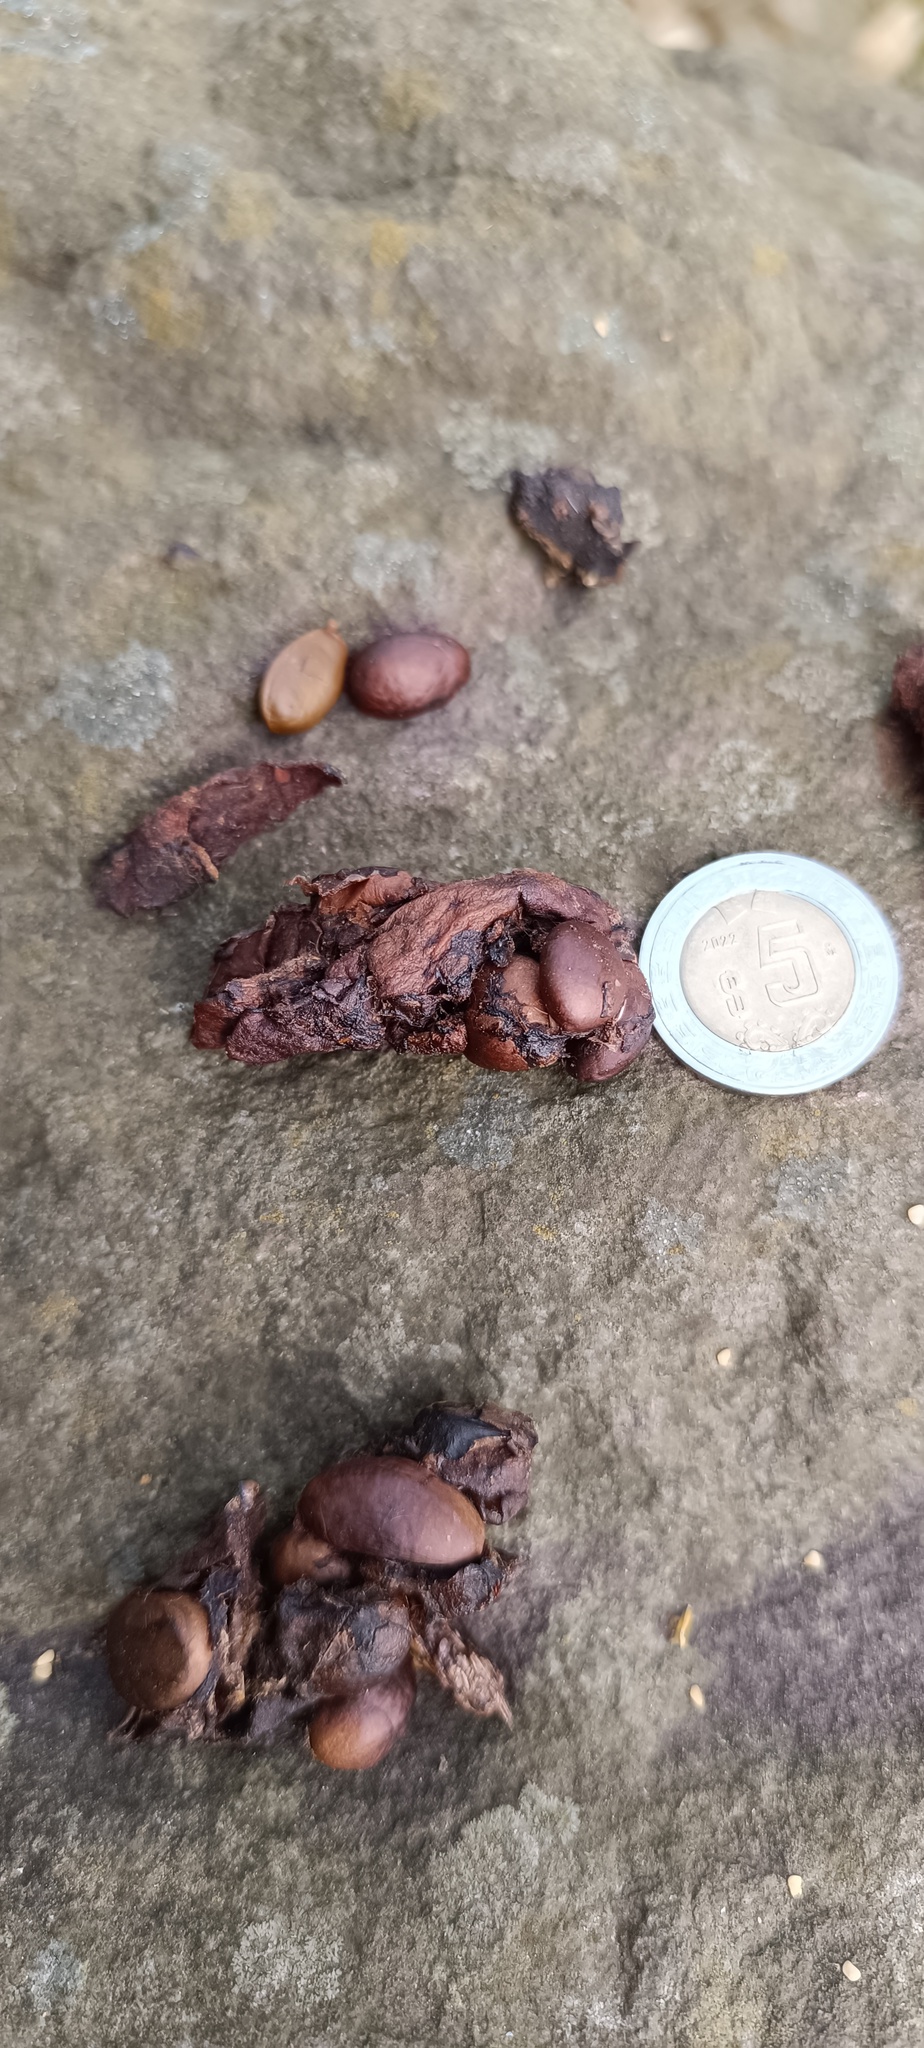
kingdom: Animalia
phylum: Chordata
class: Mammalia
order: Carnivora
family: Procyonidae
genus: Bassariscus
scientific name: Bassariscus astutus
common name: Ringtail
